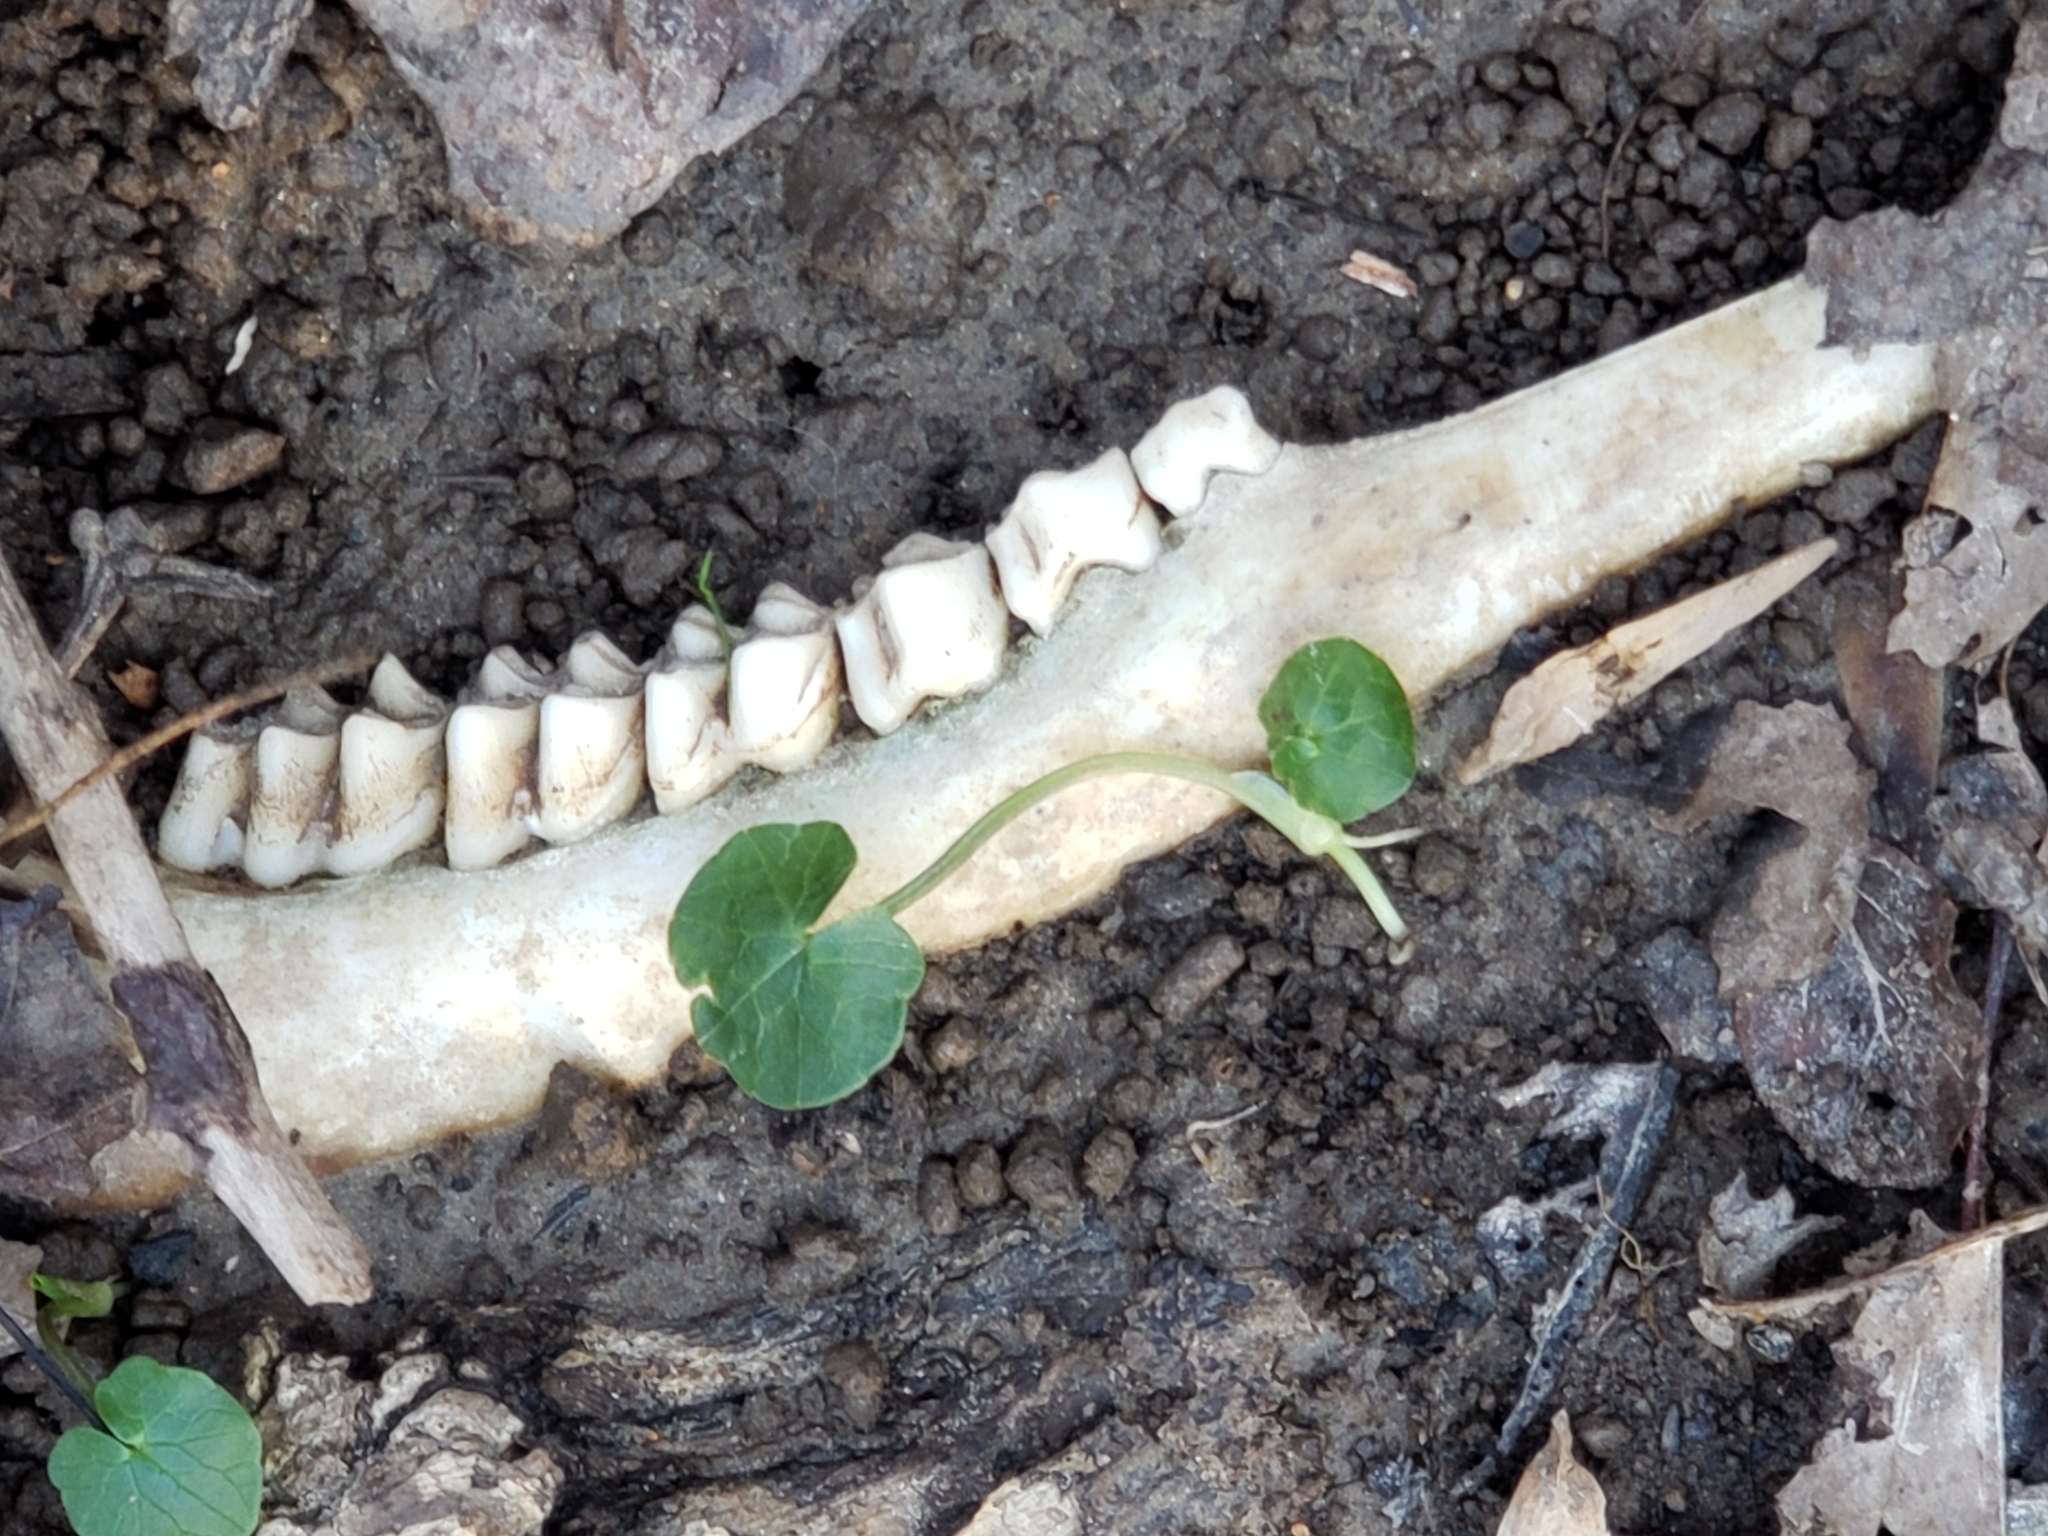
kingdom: Animalia
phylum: Chordata
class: Mammalia
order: Artiodactyla
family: Cervidae
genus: Odocoileus
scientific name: Odocoileus virginianus
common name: White-tailed deer
